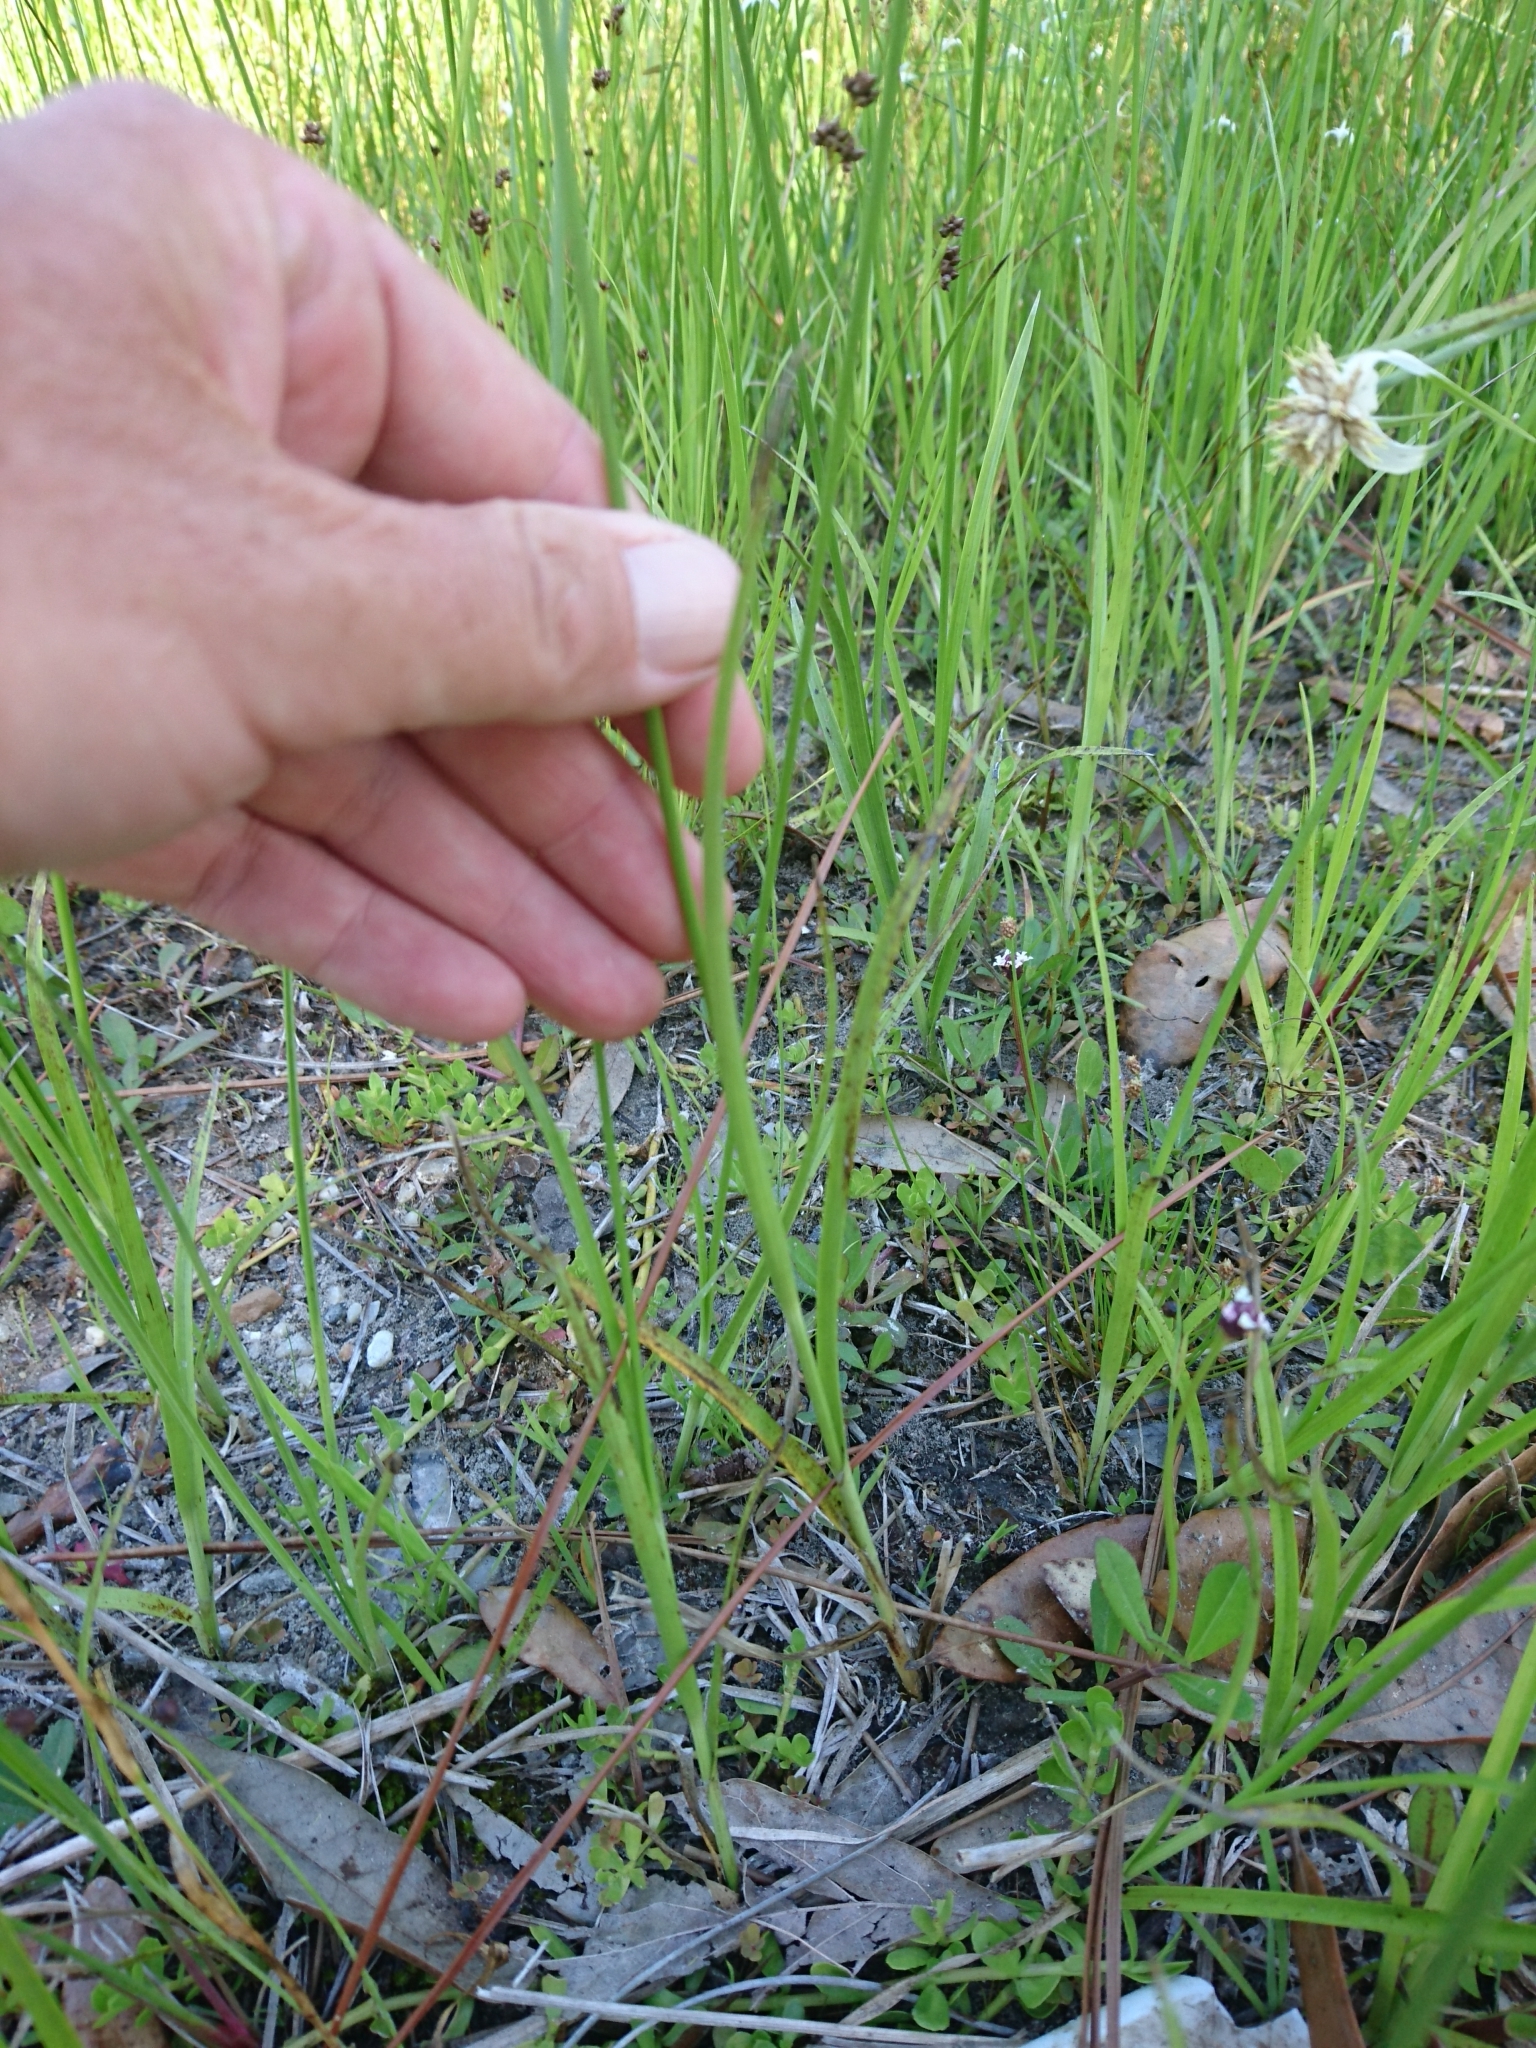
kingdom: Plantae
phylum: Tracheophyta
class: Liliopsida
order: Poales
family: Cyperaceae
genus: Rhynchospora
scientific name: Rhynchospora latifolia
